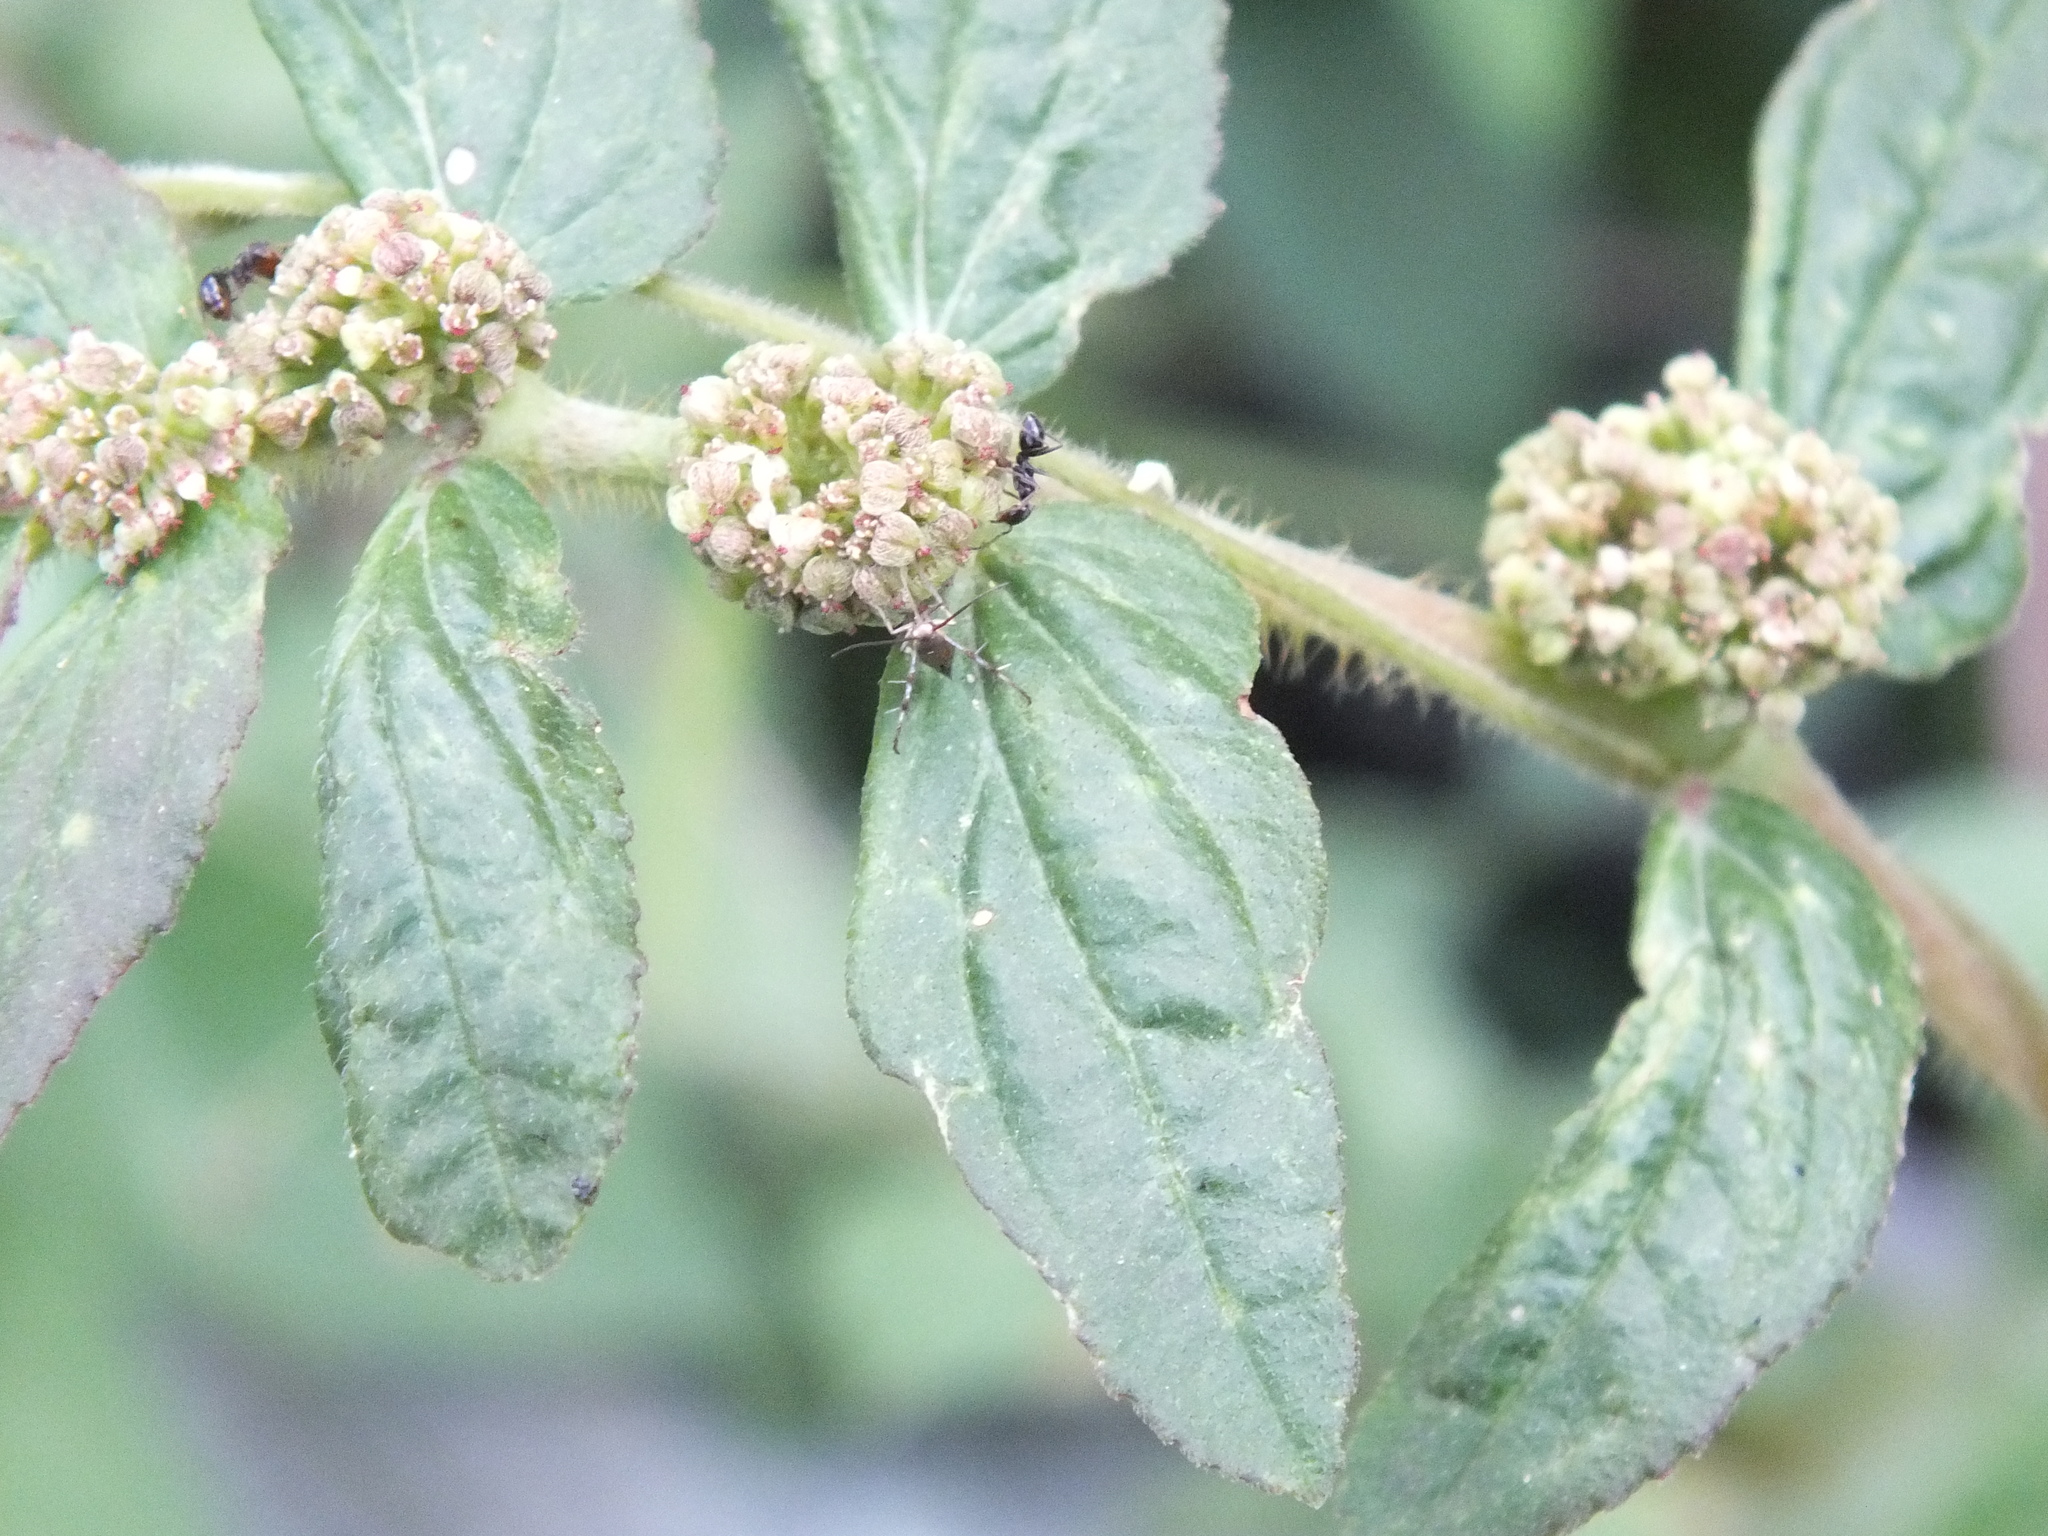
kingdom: Plantae
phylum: Tracheophyta
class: Magnoliopsida
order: Malpighiales
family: Euphorbiaceae
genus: Euphorbia
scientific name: Euphorbia hirta
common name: Pillpod sandmat
